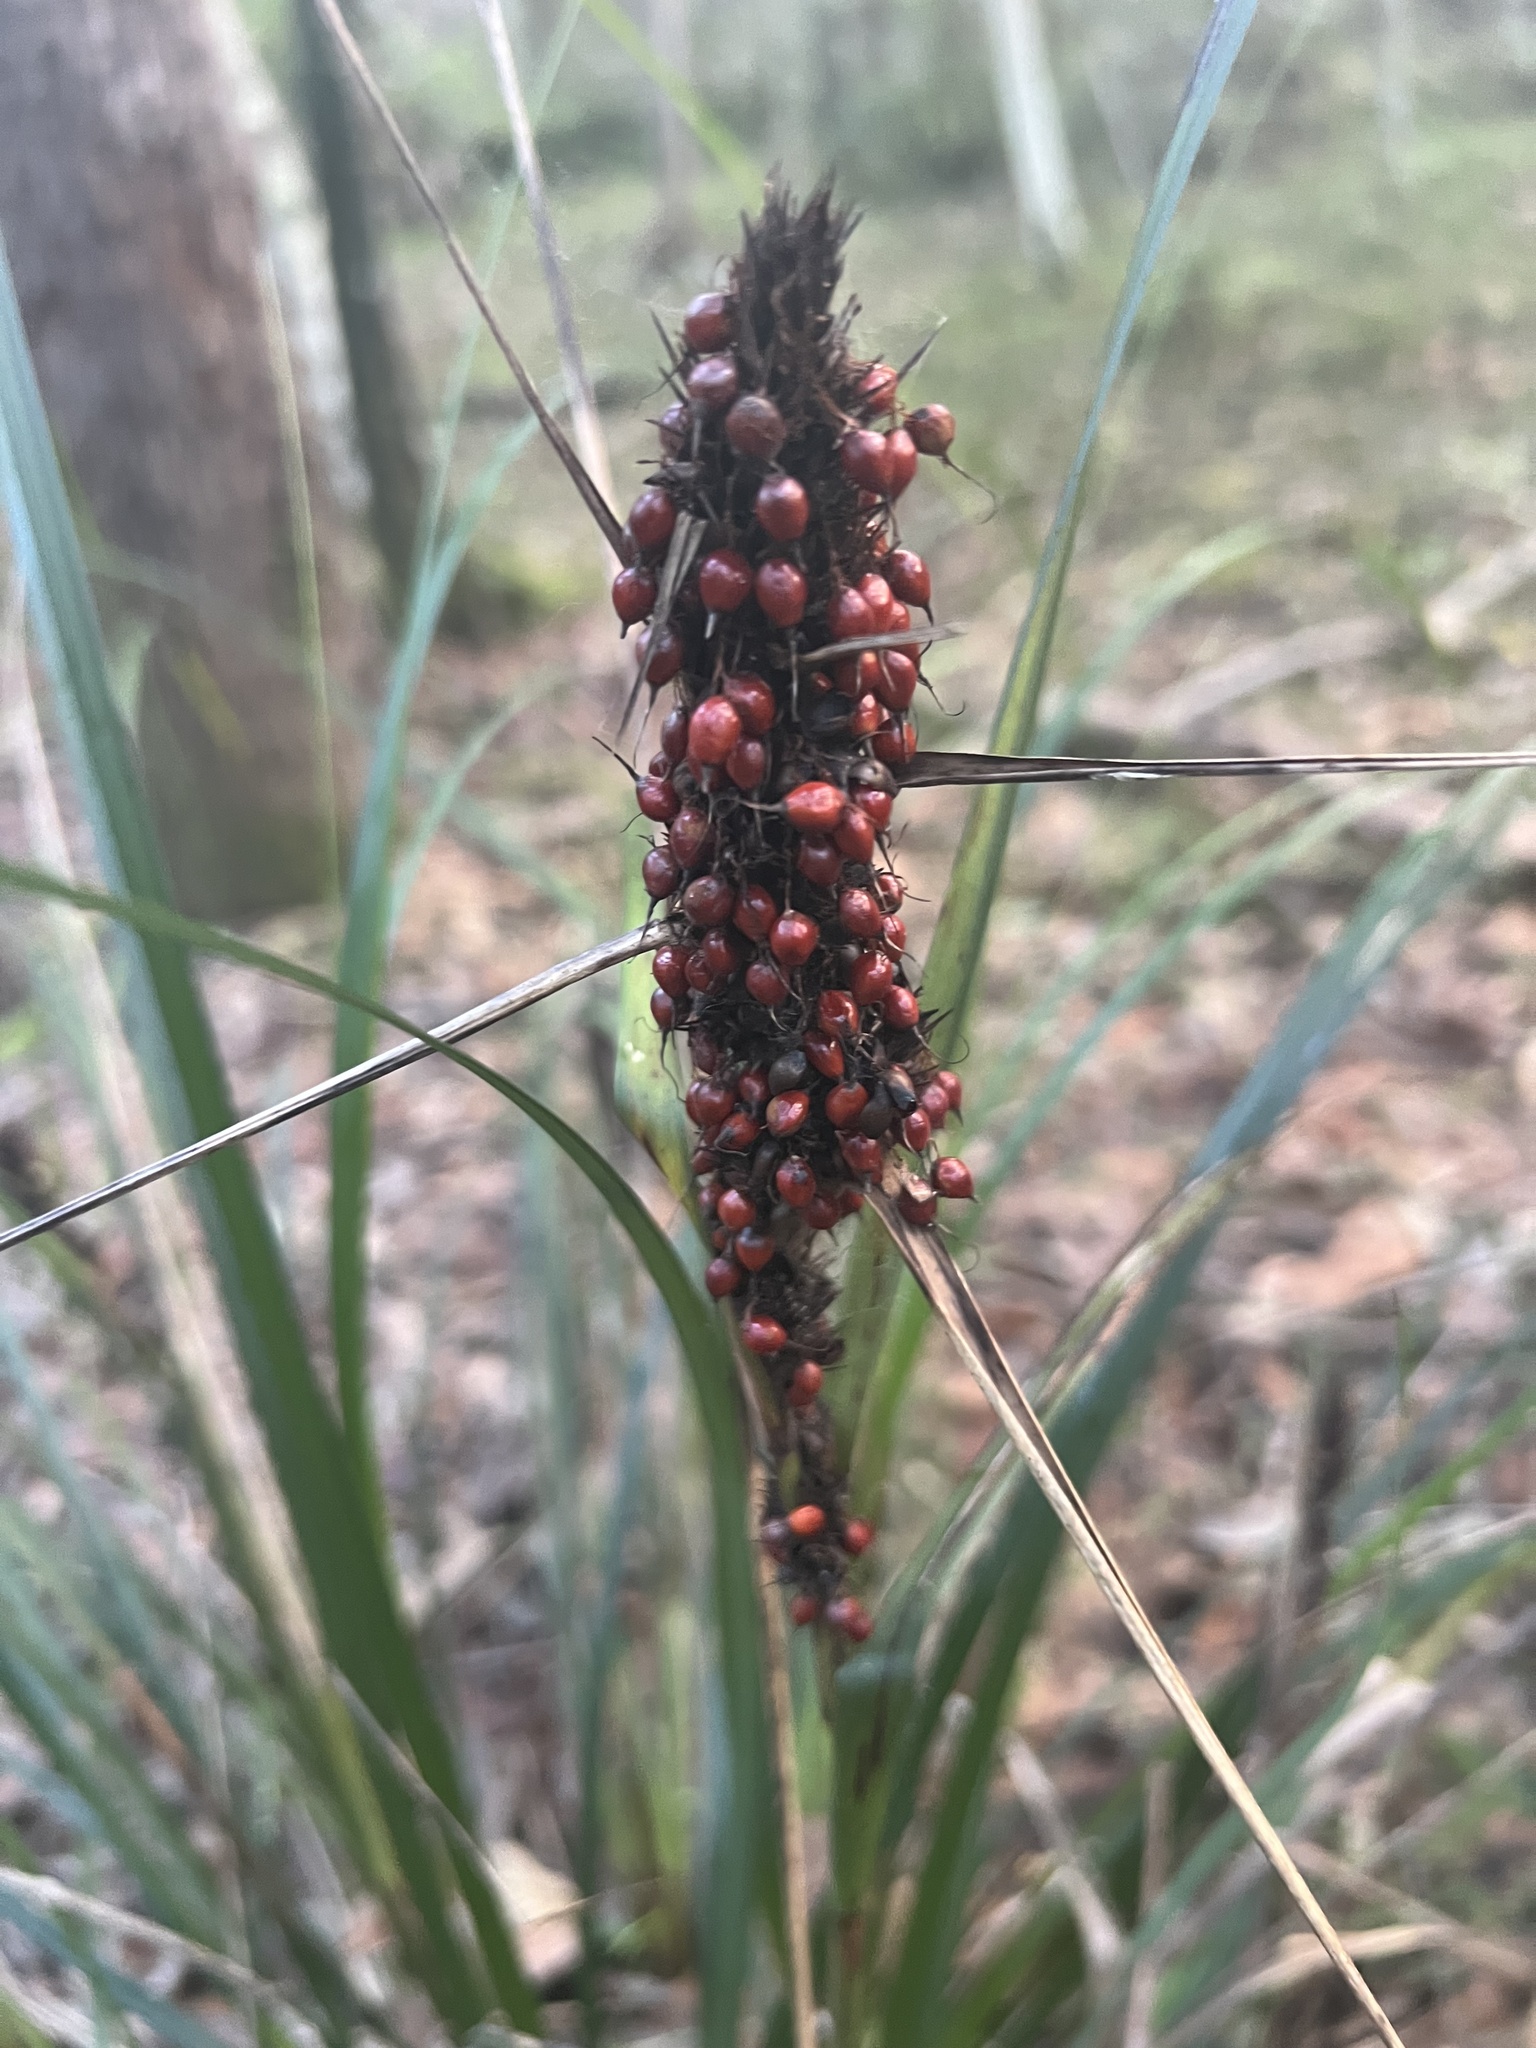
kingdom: Plantae
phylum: Tracheophyta
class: Liliopsida
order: Poales
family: Cyperaceae
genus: Gahnia
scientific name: Gahnia aspera
